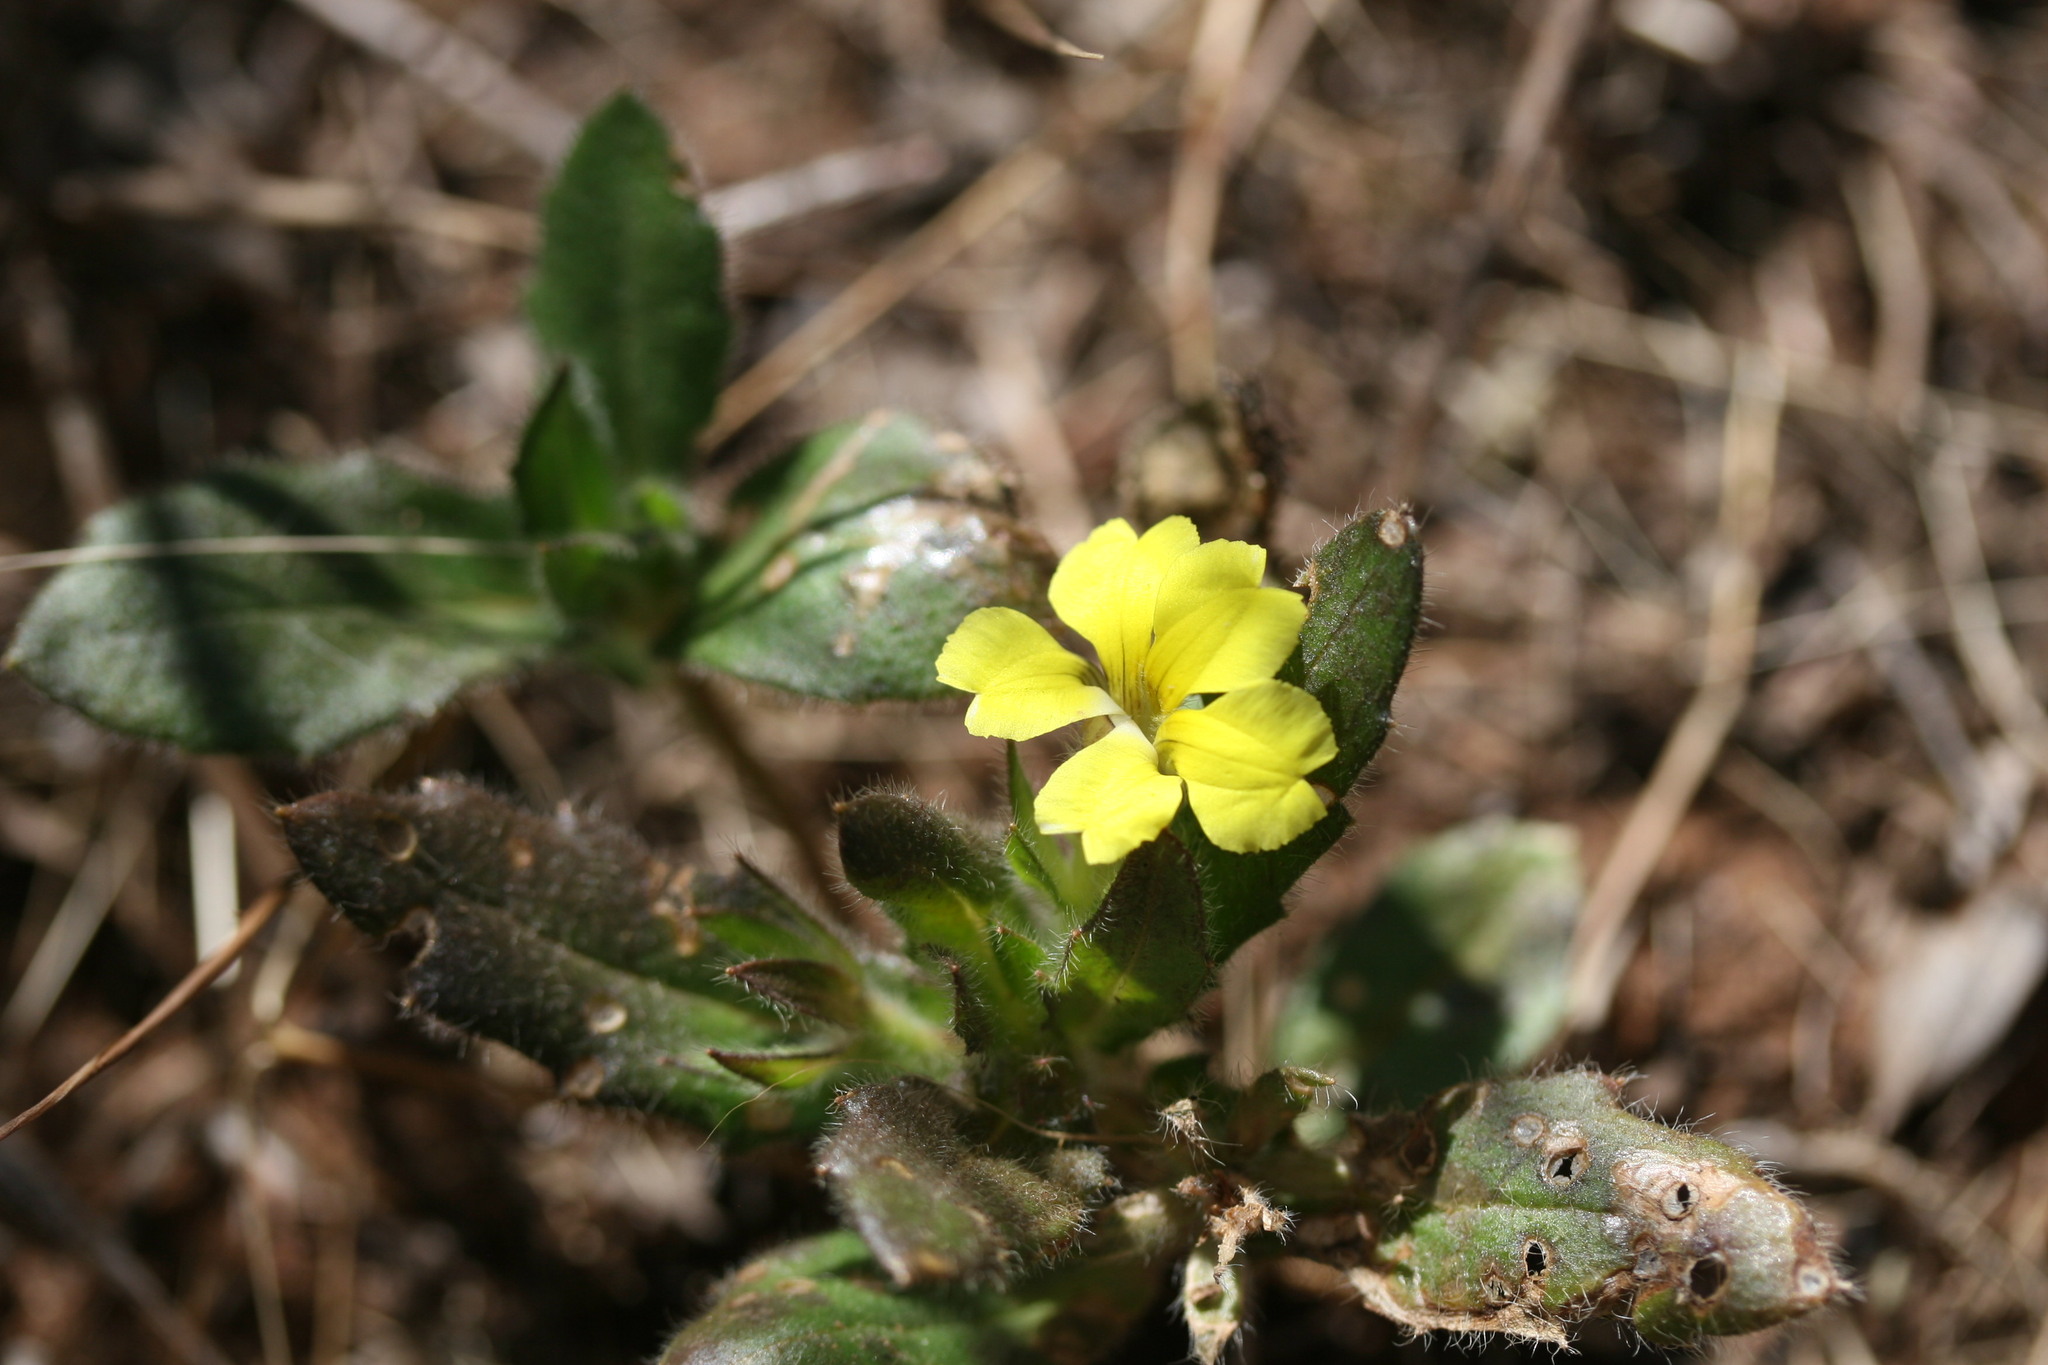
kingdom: Plantae
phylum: Tracheophyta
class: Magnoliopsida
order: Asterales
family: Goodeniaceae
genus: Goodenia
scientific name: Goodenia sepalosa
